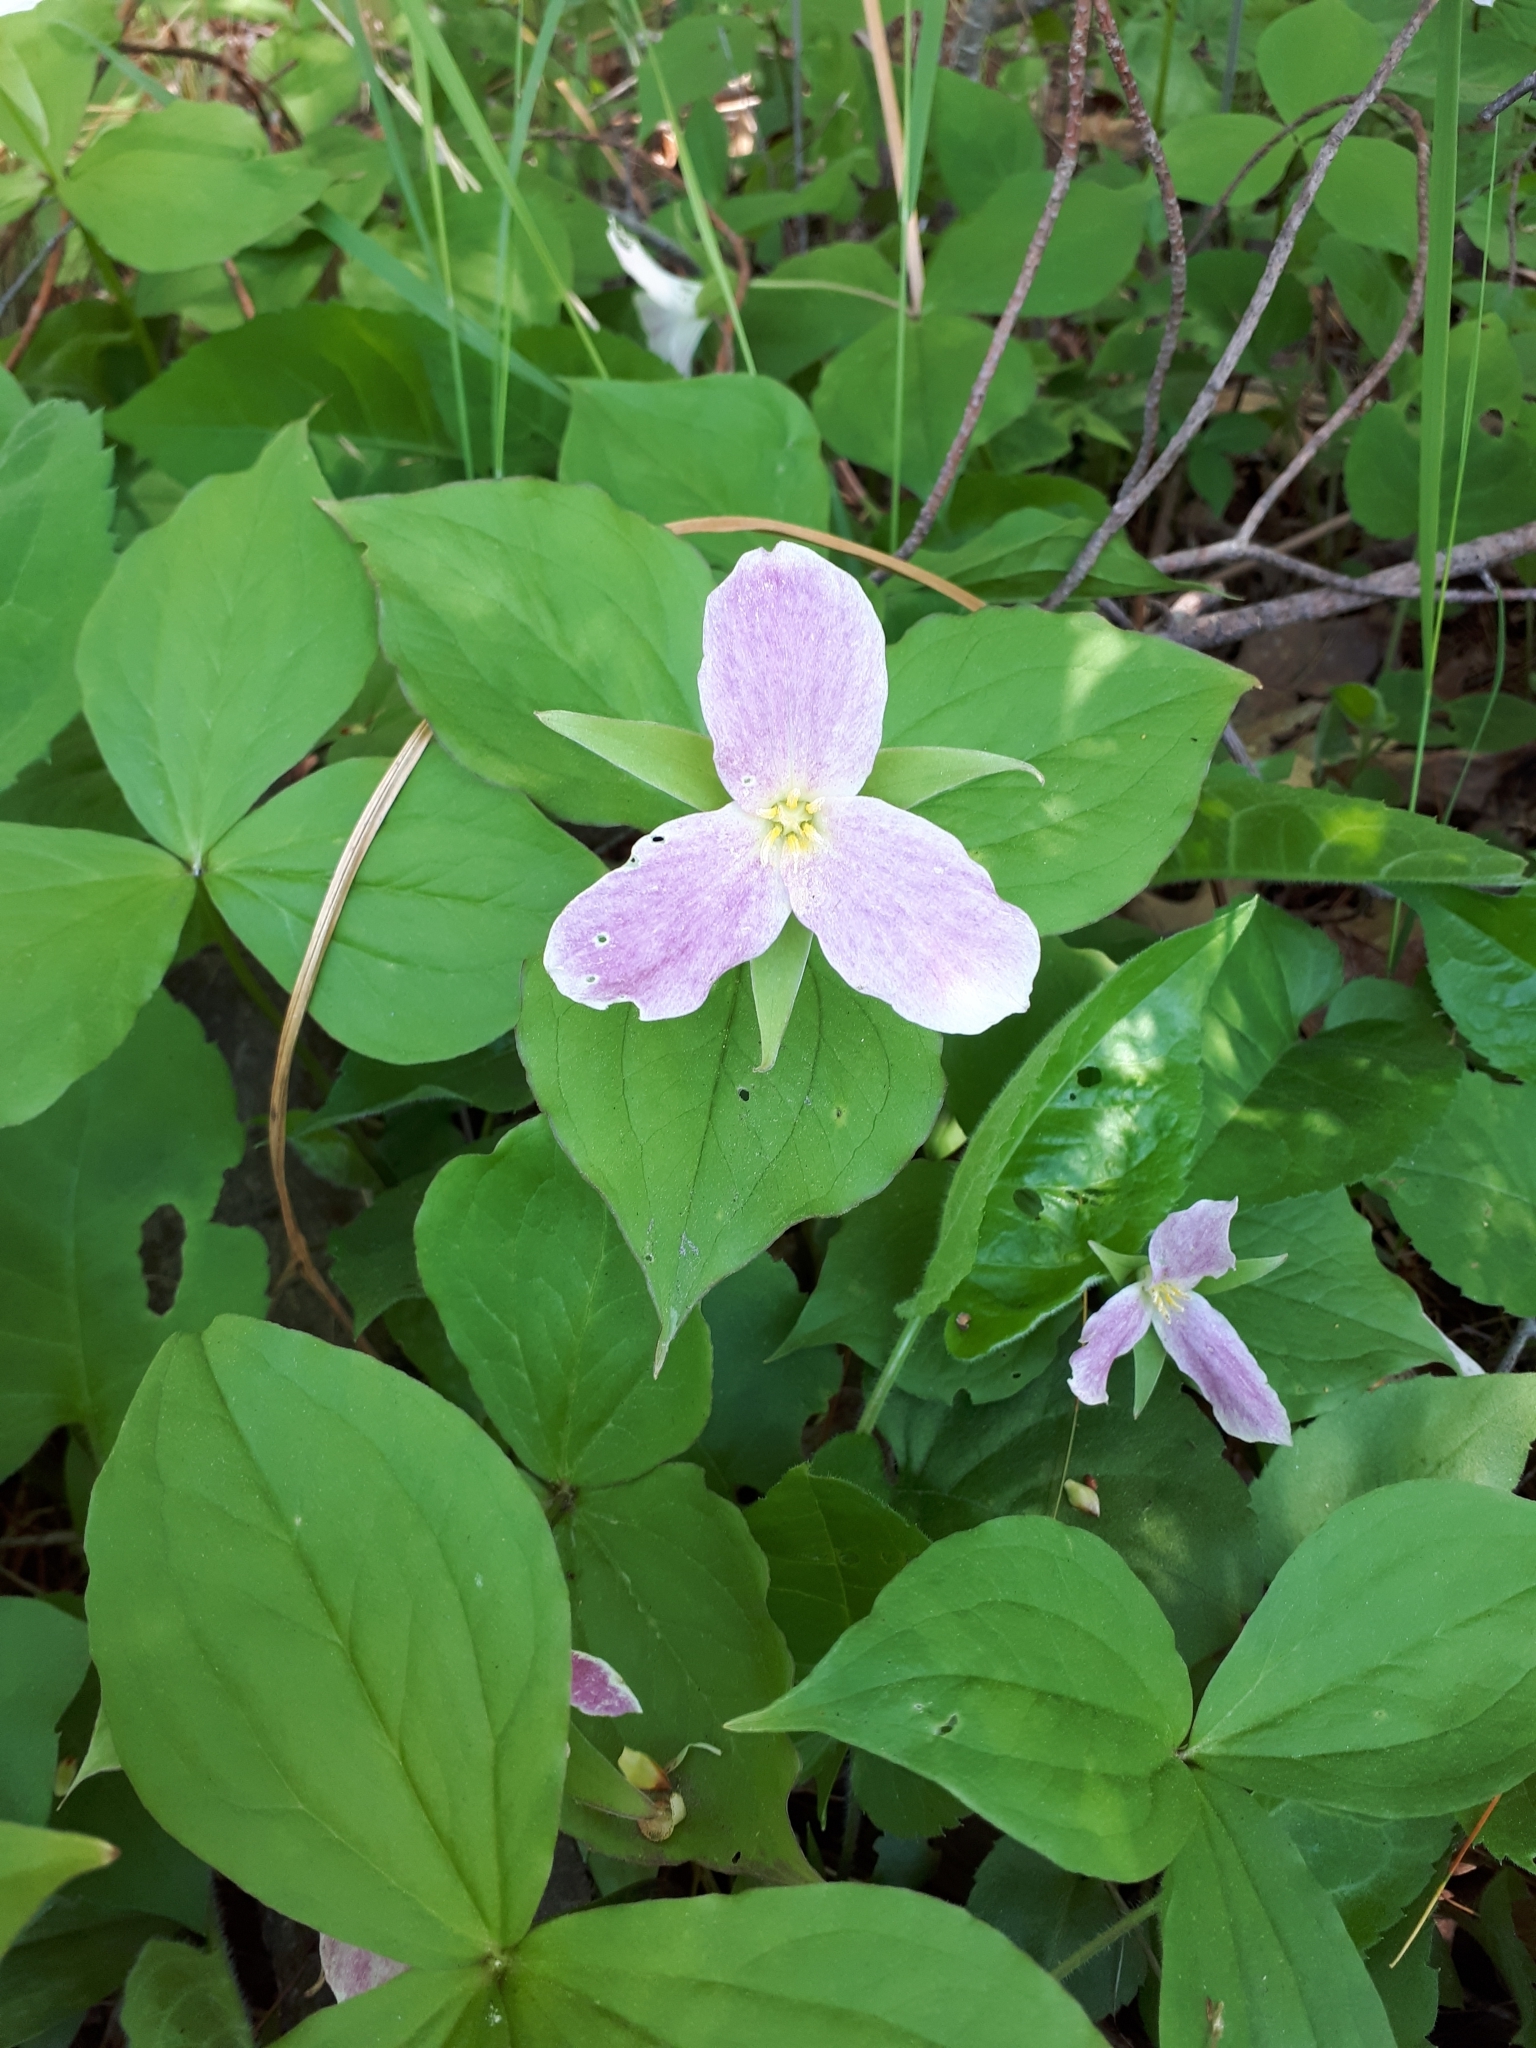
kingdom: Plantae
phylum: Tracheophyta
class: Liliopsida
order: Liliales
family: Melanthiaceae
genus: Trillium
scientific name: Trillium grandiflorum
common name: Great white trillium
